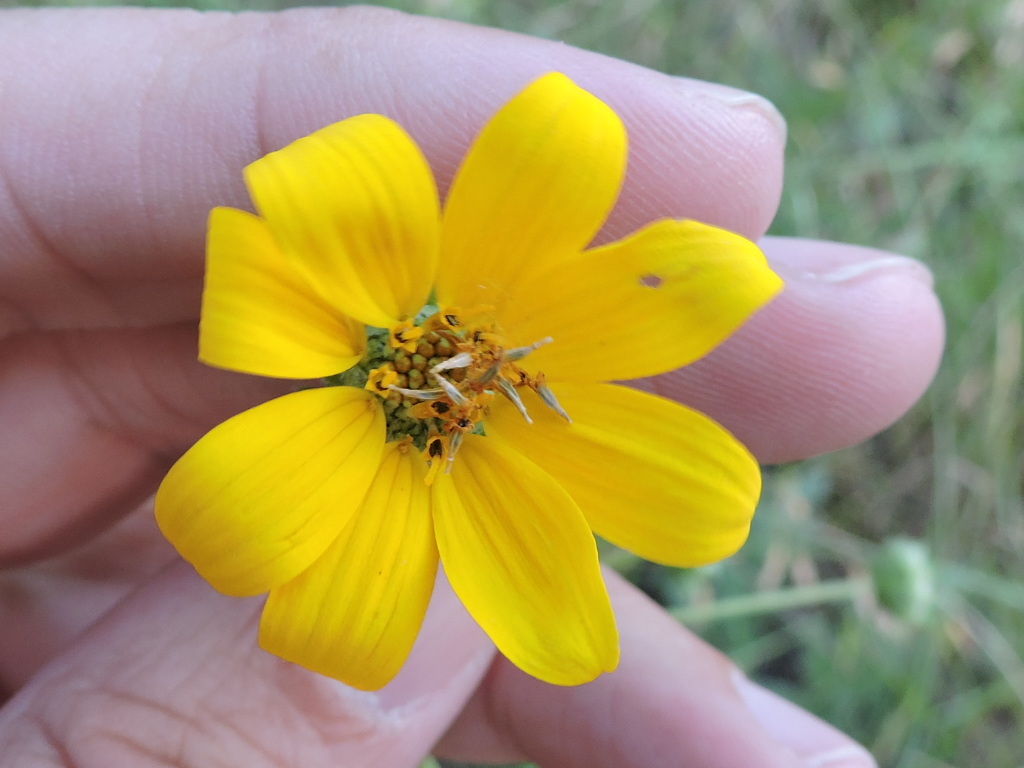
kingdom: Plantae
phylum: Tracheophyta
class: Magnoliopsida
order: Asterales
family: Asteraceae
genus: Engelmannia
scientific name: Engelmannia peristenia
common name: Engelmann's daisy
